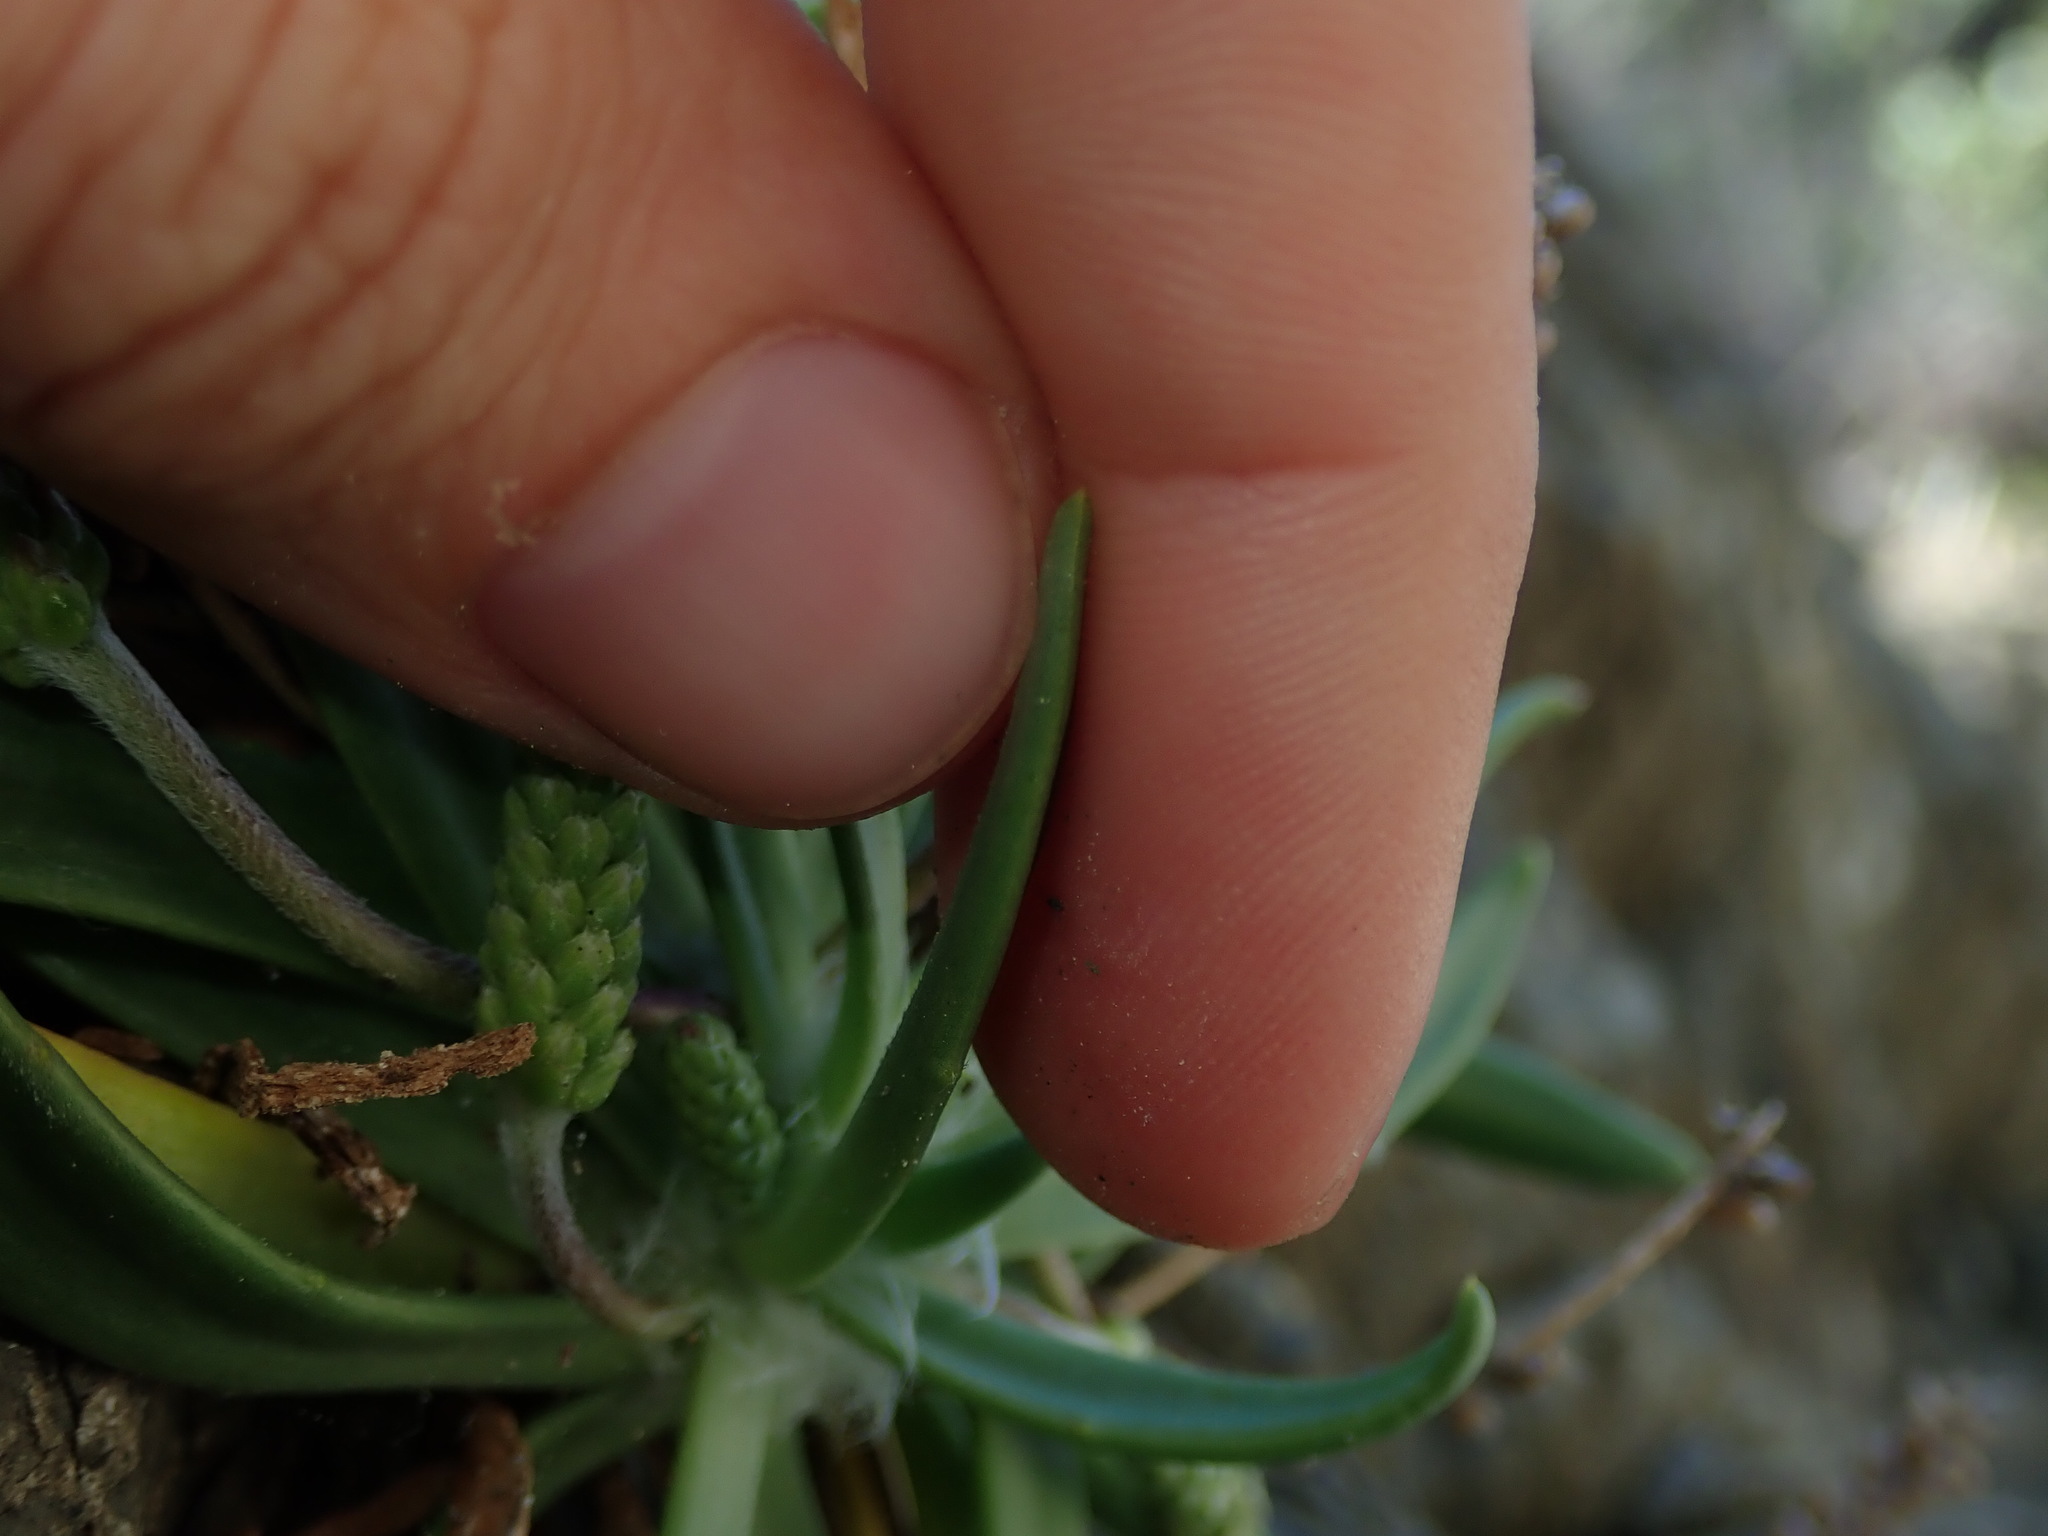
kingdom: Plantae
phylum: Tracheophyta
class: Magnoliopsida
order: Lamiales
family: Plantaginaceae
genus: Plantago
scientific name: Plantago maritima
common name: Sea plantain
